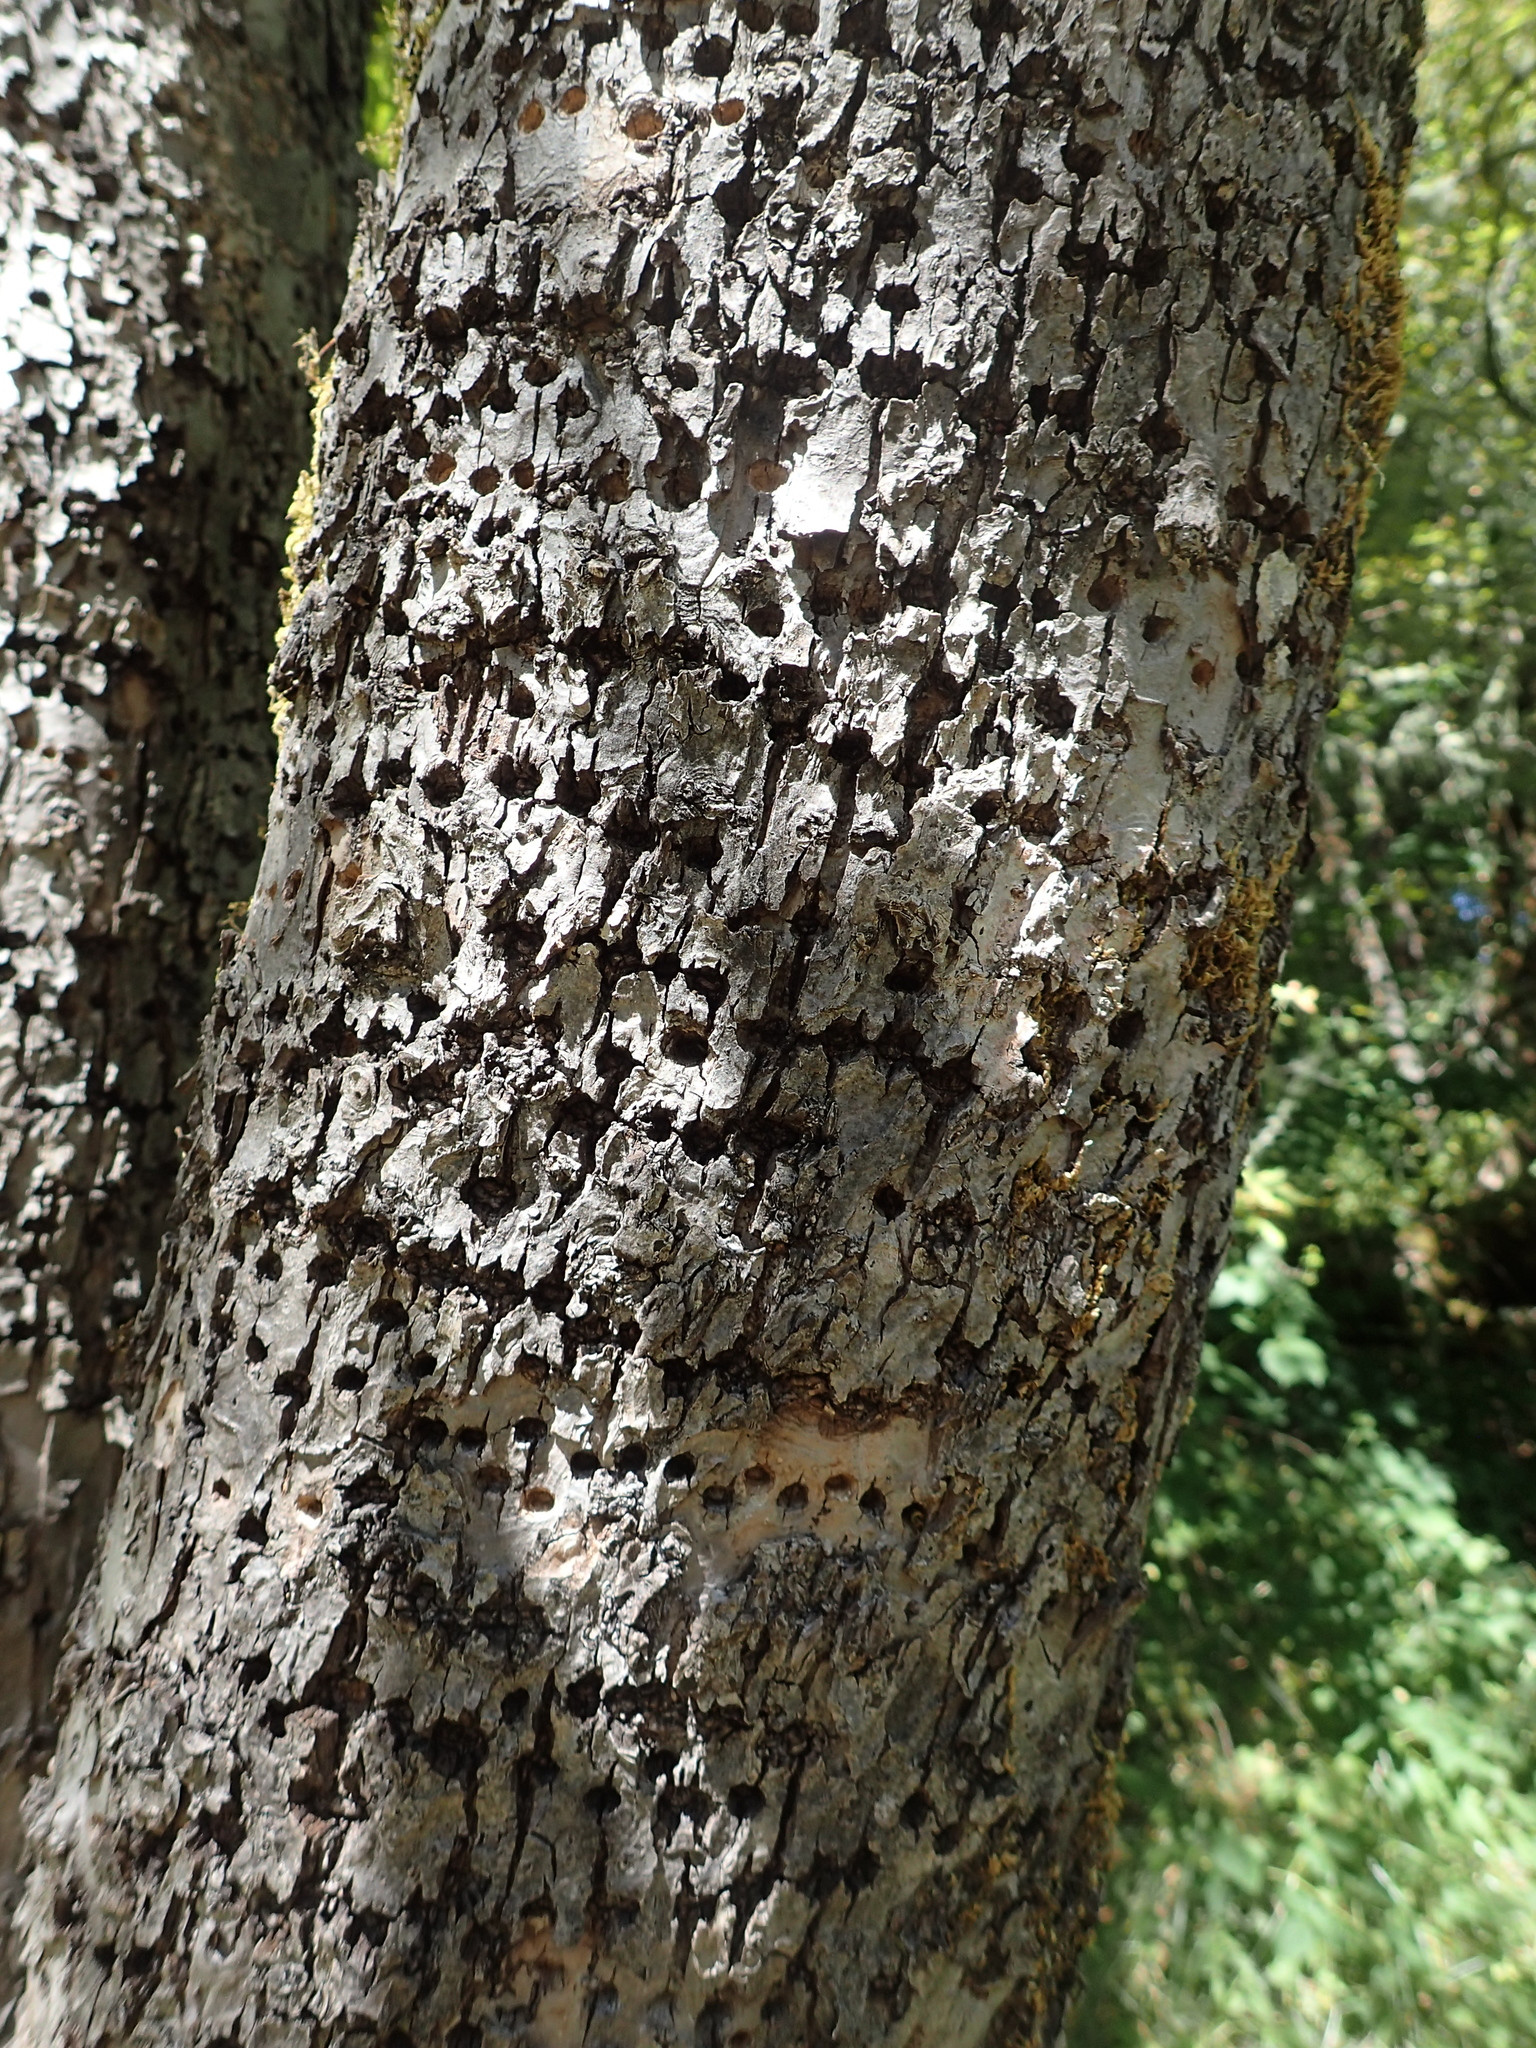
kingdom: Animalia
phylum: Chordata
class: Aves
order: Piciformes
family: Picidae
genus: Sphyrapicus
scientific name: Sphyrapicus ruber
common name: Red-breasted sapsucker
